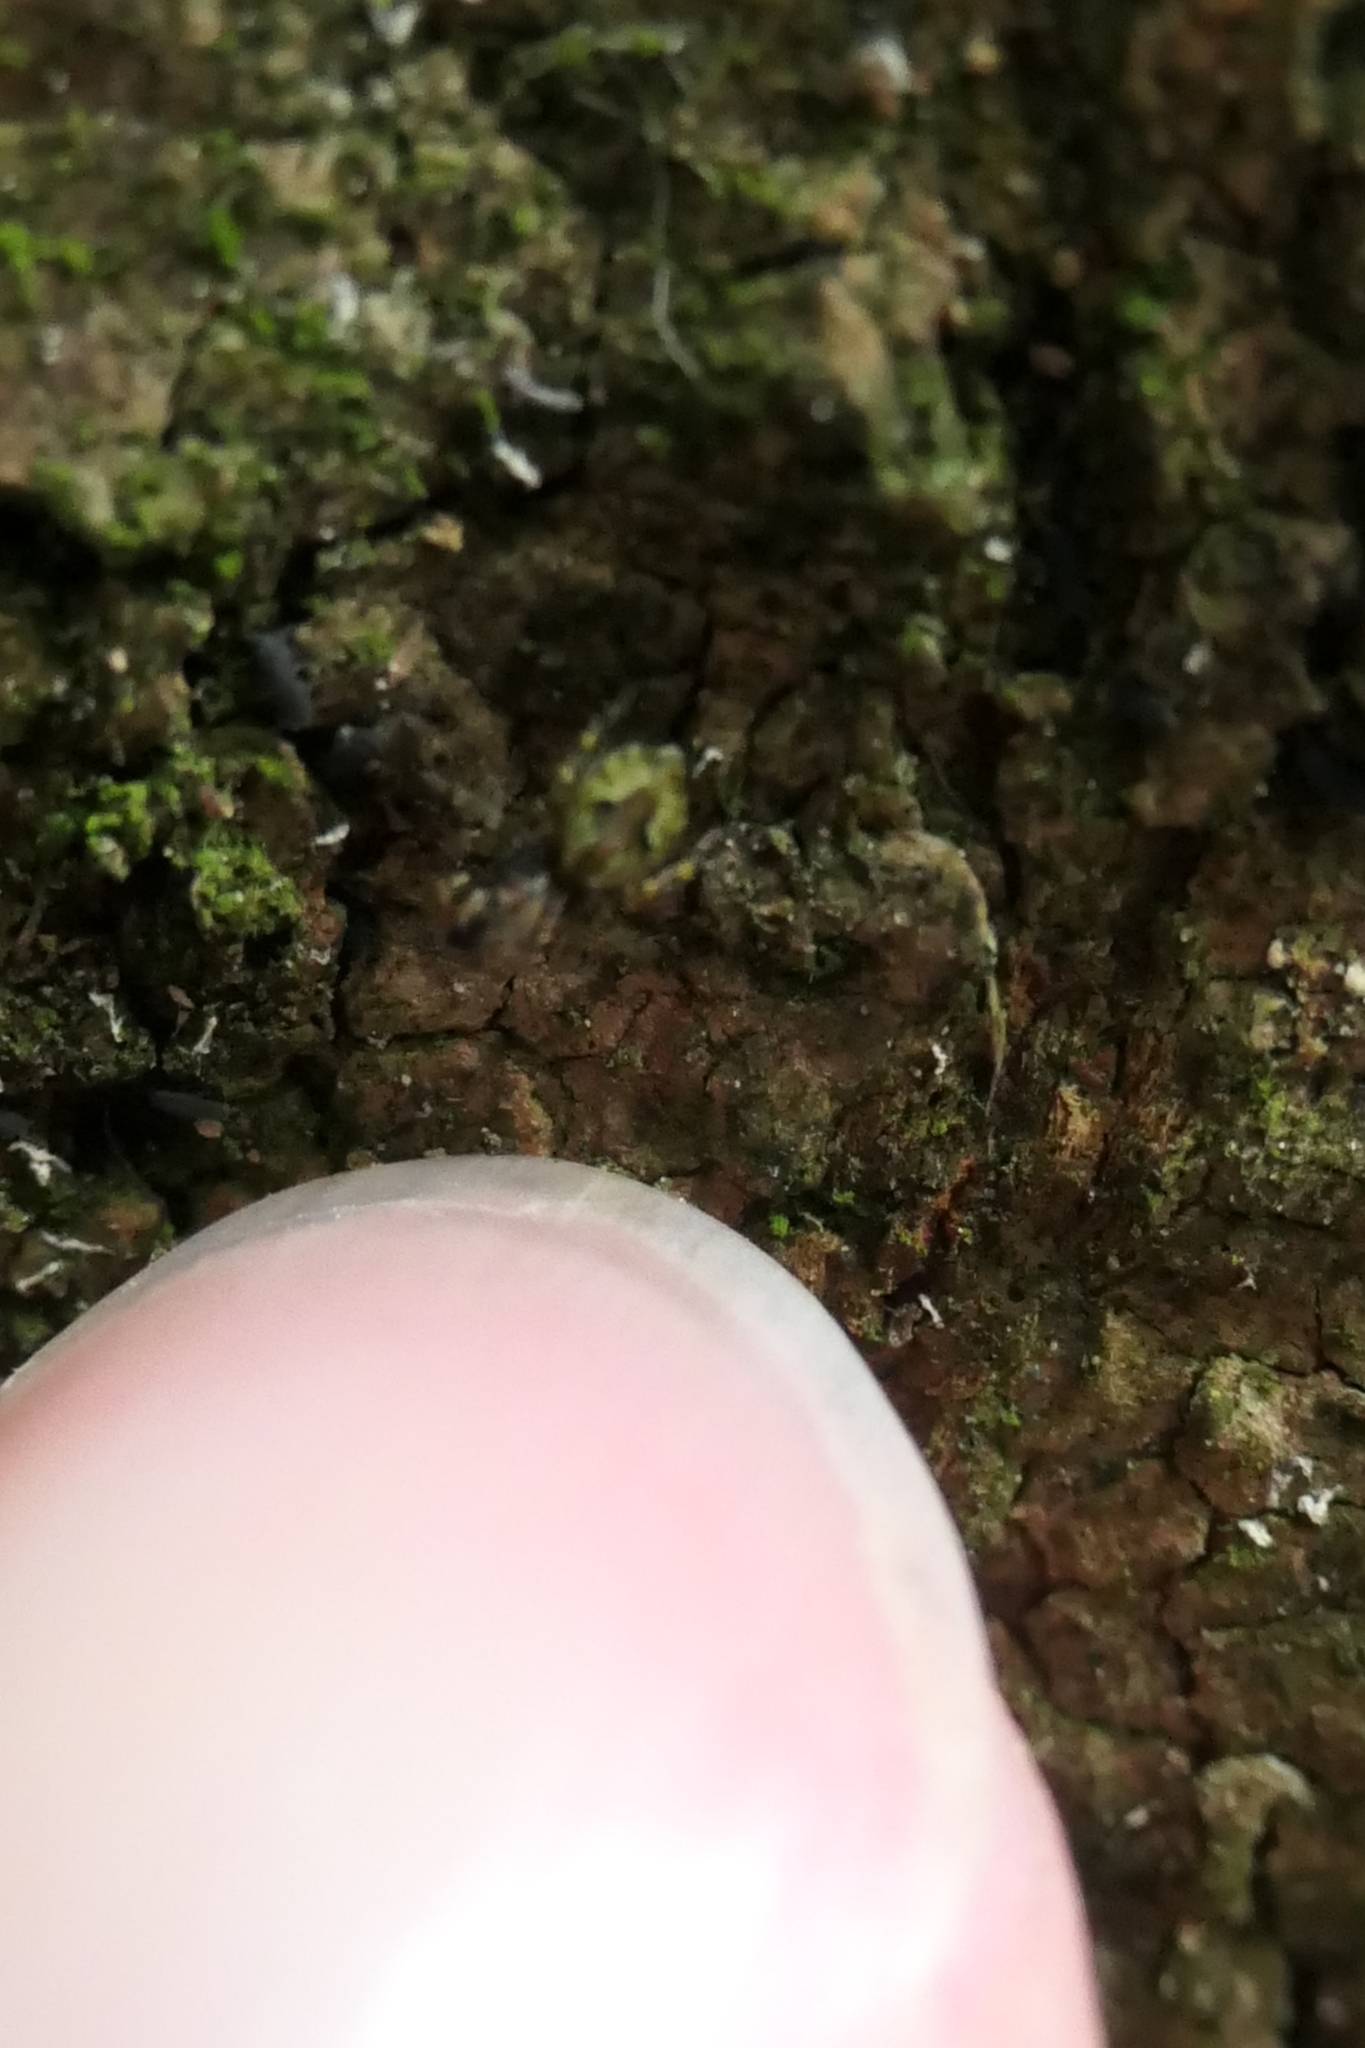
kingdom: Animalia
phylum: Arthropoda
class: Arachnida
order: Araneae
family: Salticidae
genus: Hinewaia
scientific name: Hinewaia embolica
